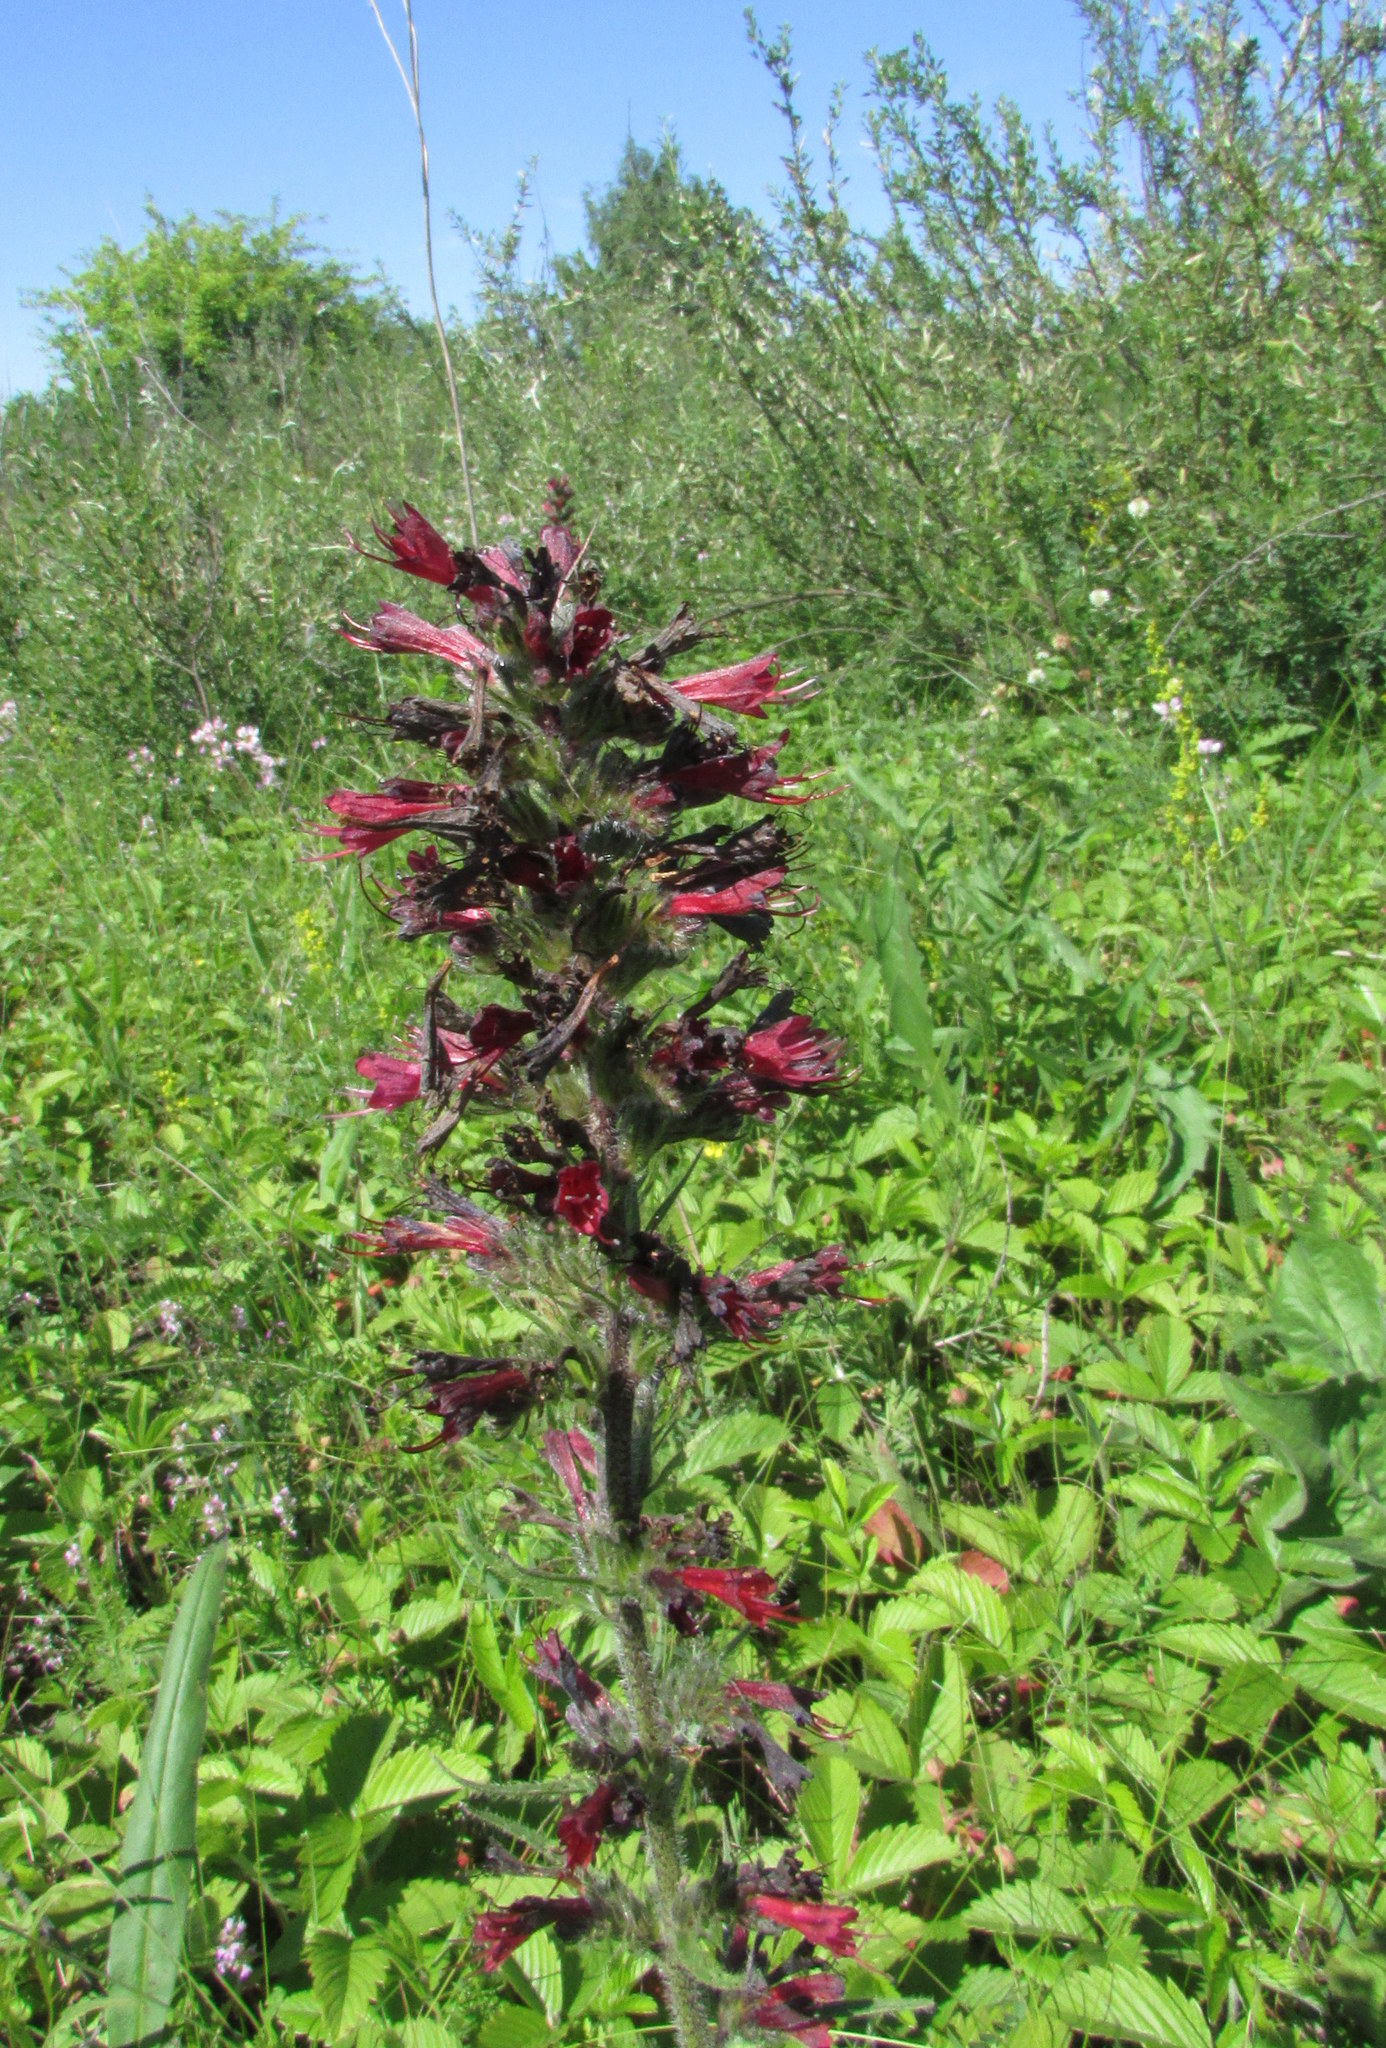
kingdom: Plantae
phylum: Tracheophyta
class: Magnoliopsida
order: Boraginales
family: Boraginaceae
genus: Pontechium
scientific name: Pontechium maculatum
